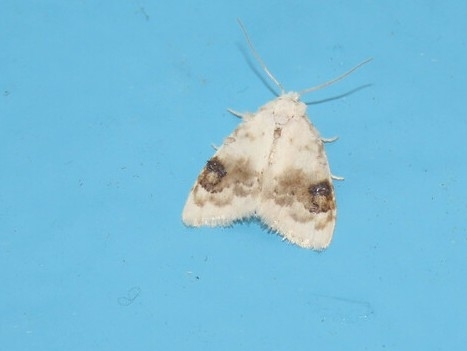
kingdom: Animalia
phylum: Arthropoda
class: Insecta
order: Lepidoptera
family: Nolidae
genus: Nola
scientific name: Nola cilicoides
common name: Blurry-patched nola moth
